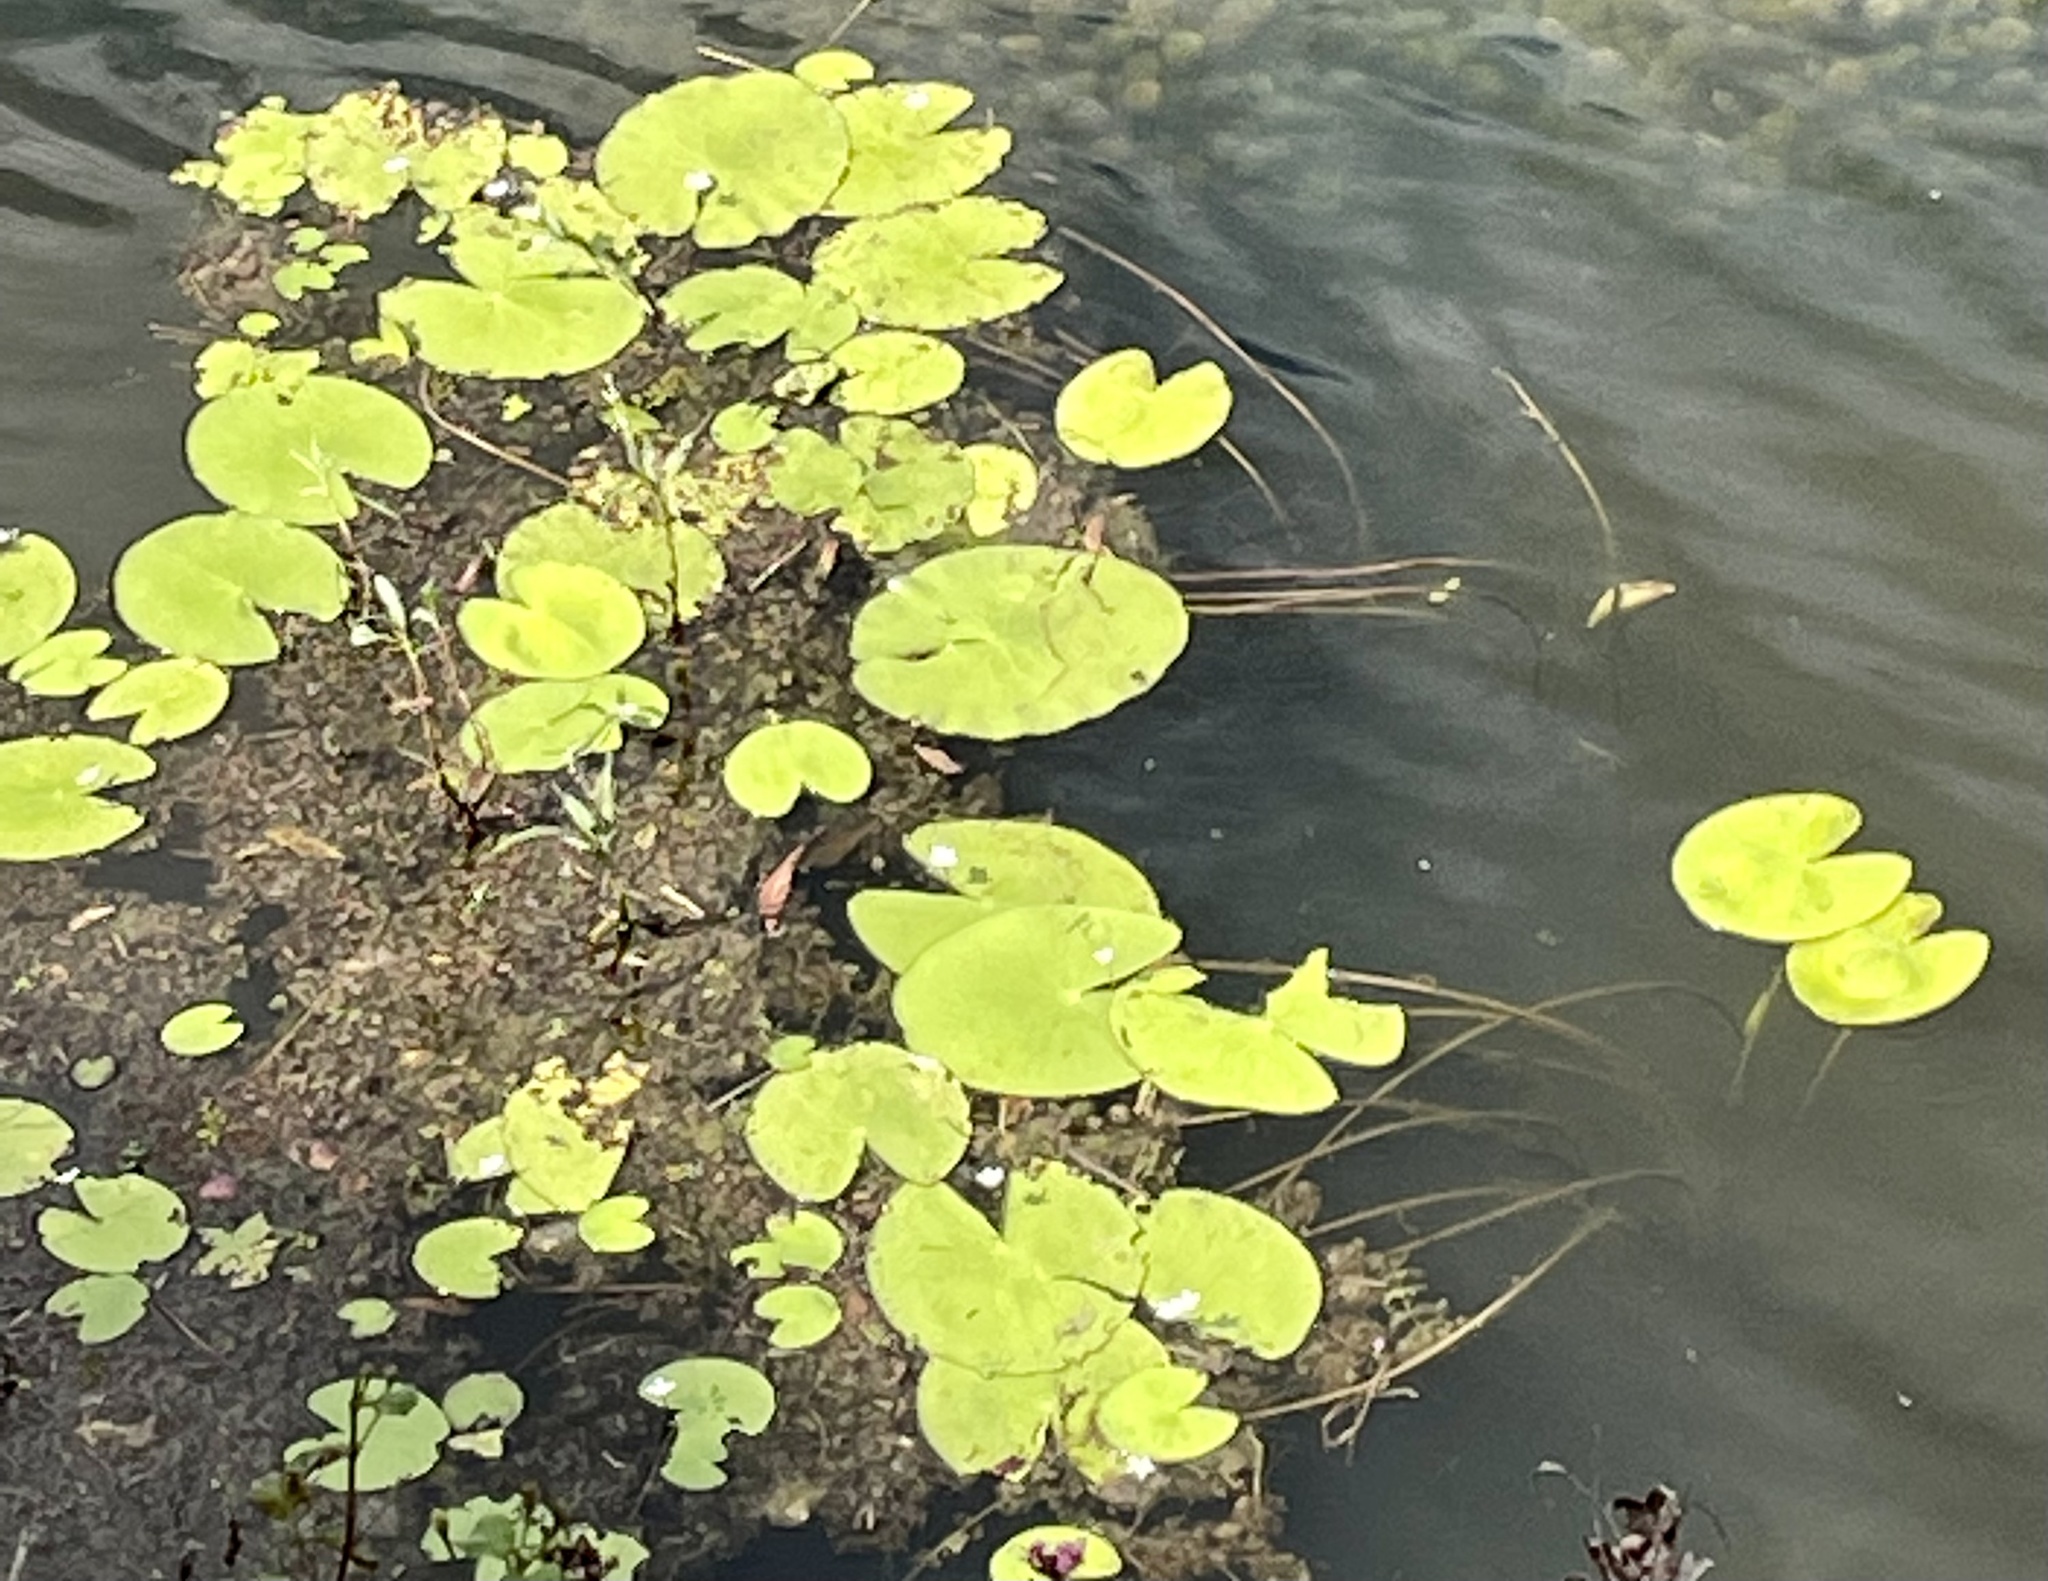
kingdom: Plantae
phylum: Tracheophyta
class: Magnoliopsida
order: Asterales
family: Menyanthaceae
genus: Nymphoides
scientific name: Nymphoides indica
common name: Water-snowflake
